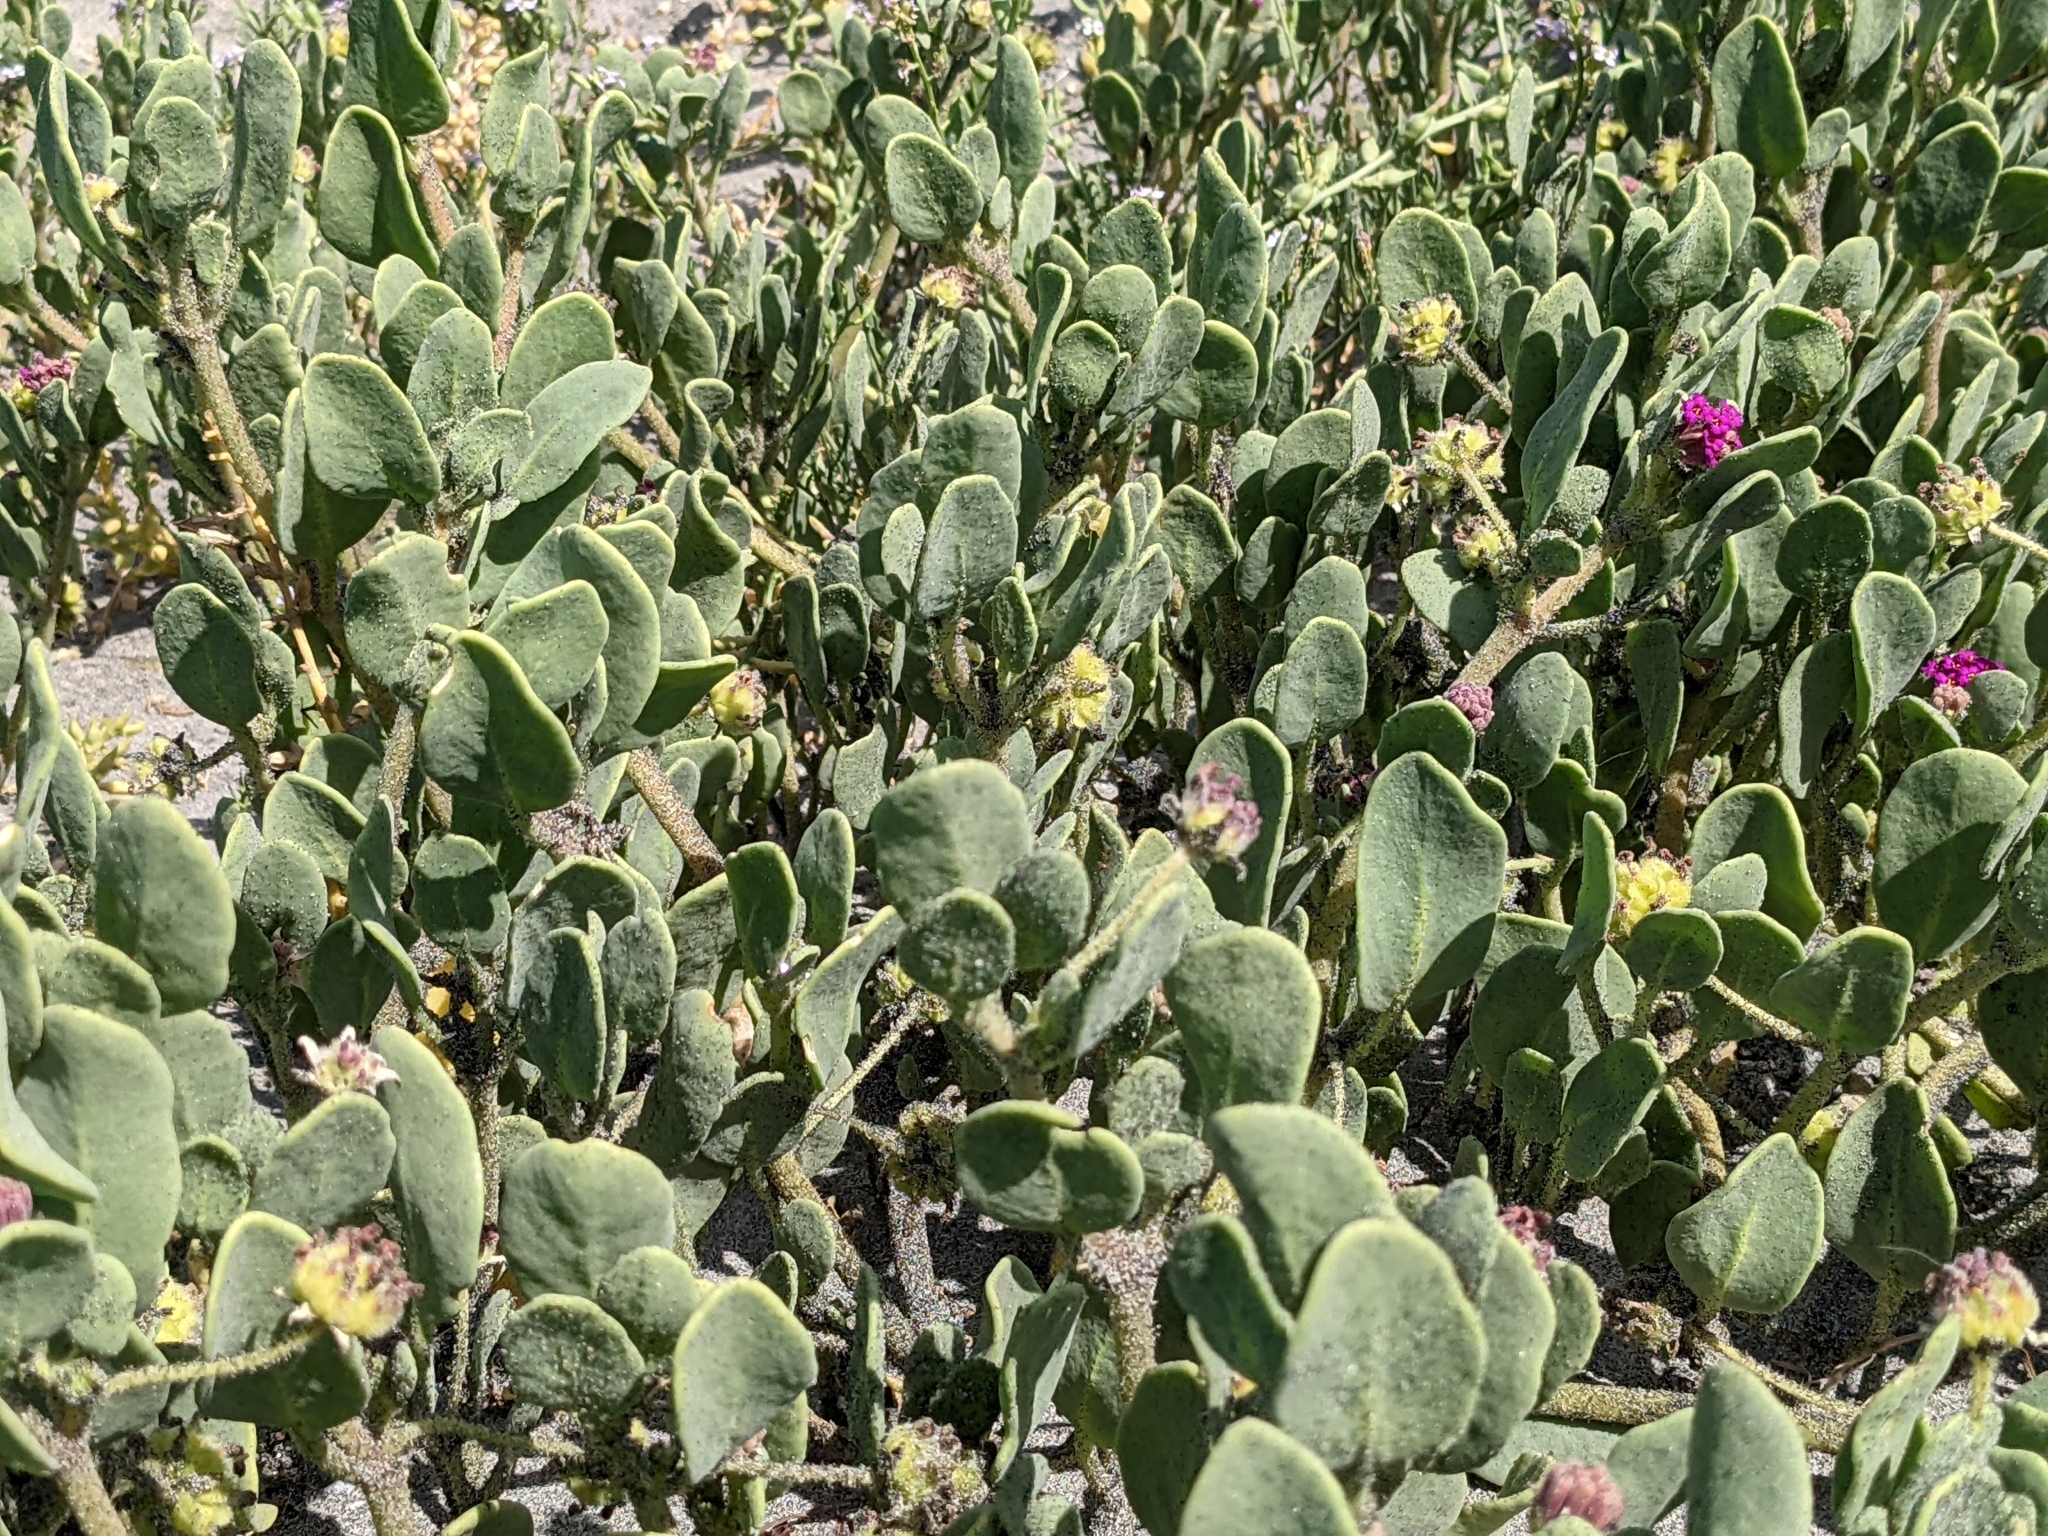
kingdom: Plantae
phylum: Tracheophyta
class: Magnoliopsida
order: Caryophyllales
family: Nyctaginaceae
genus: Abronia
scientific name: Abronia maritima
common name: Red sand-verbena
